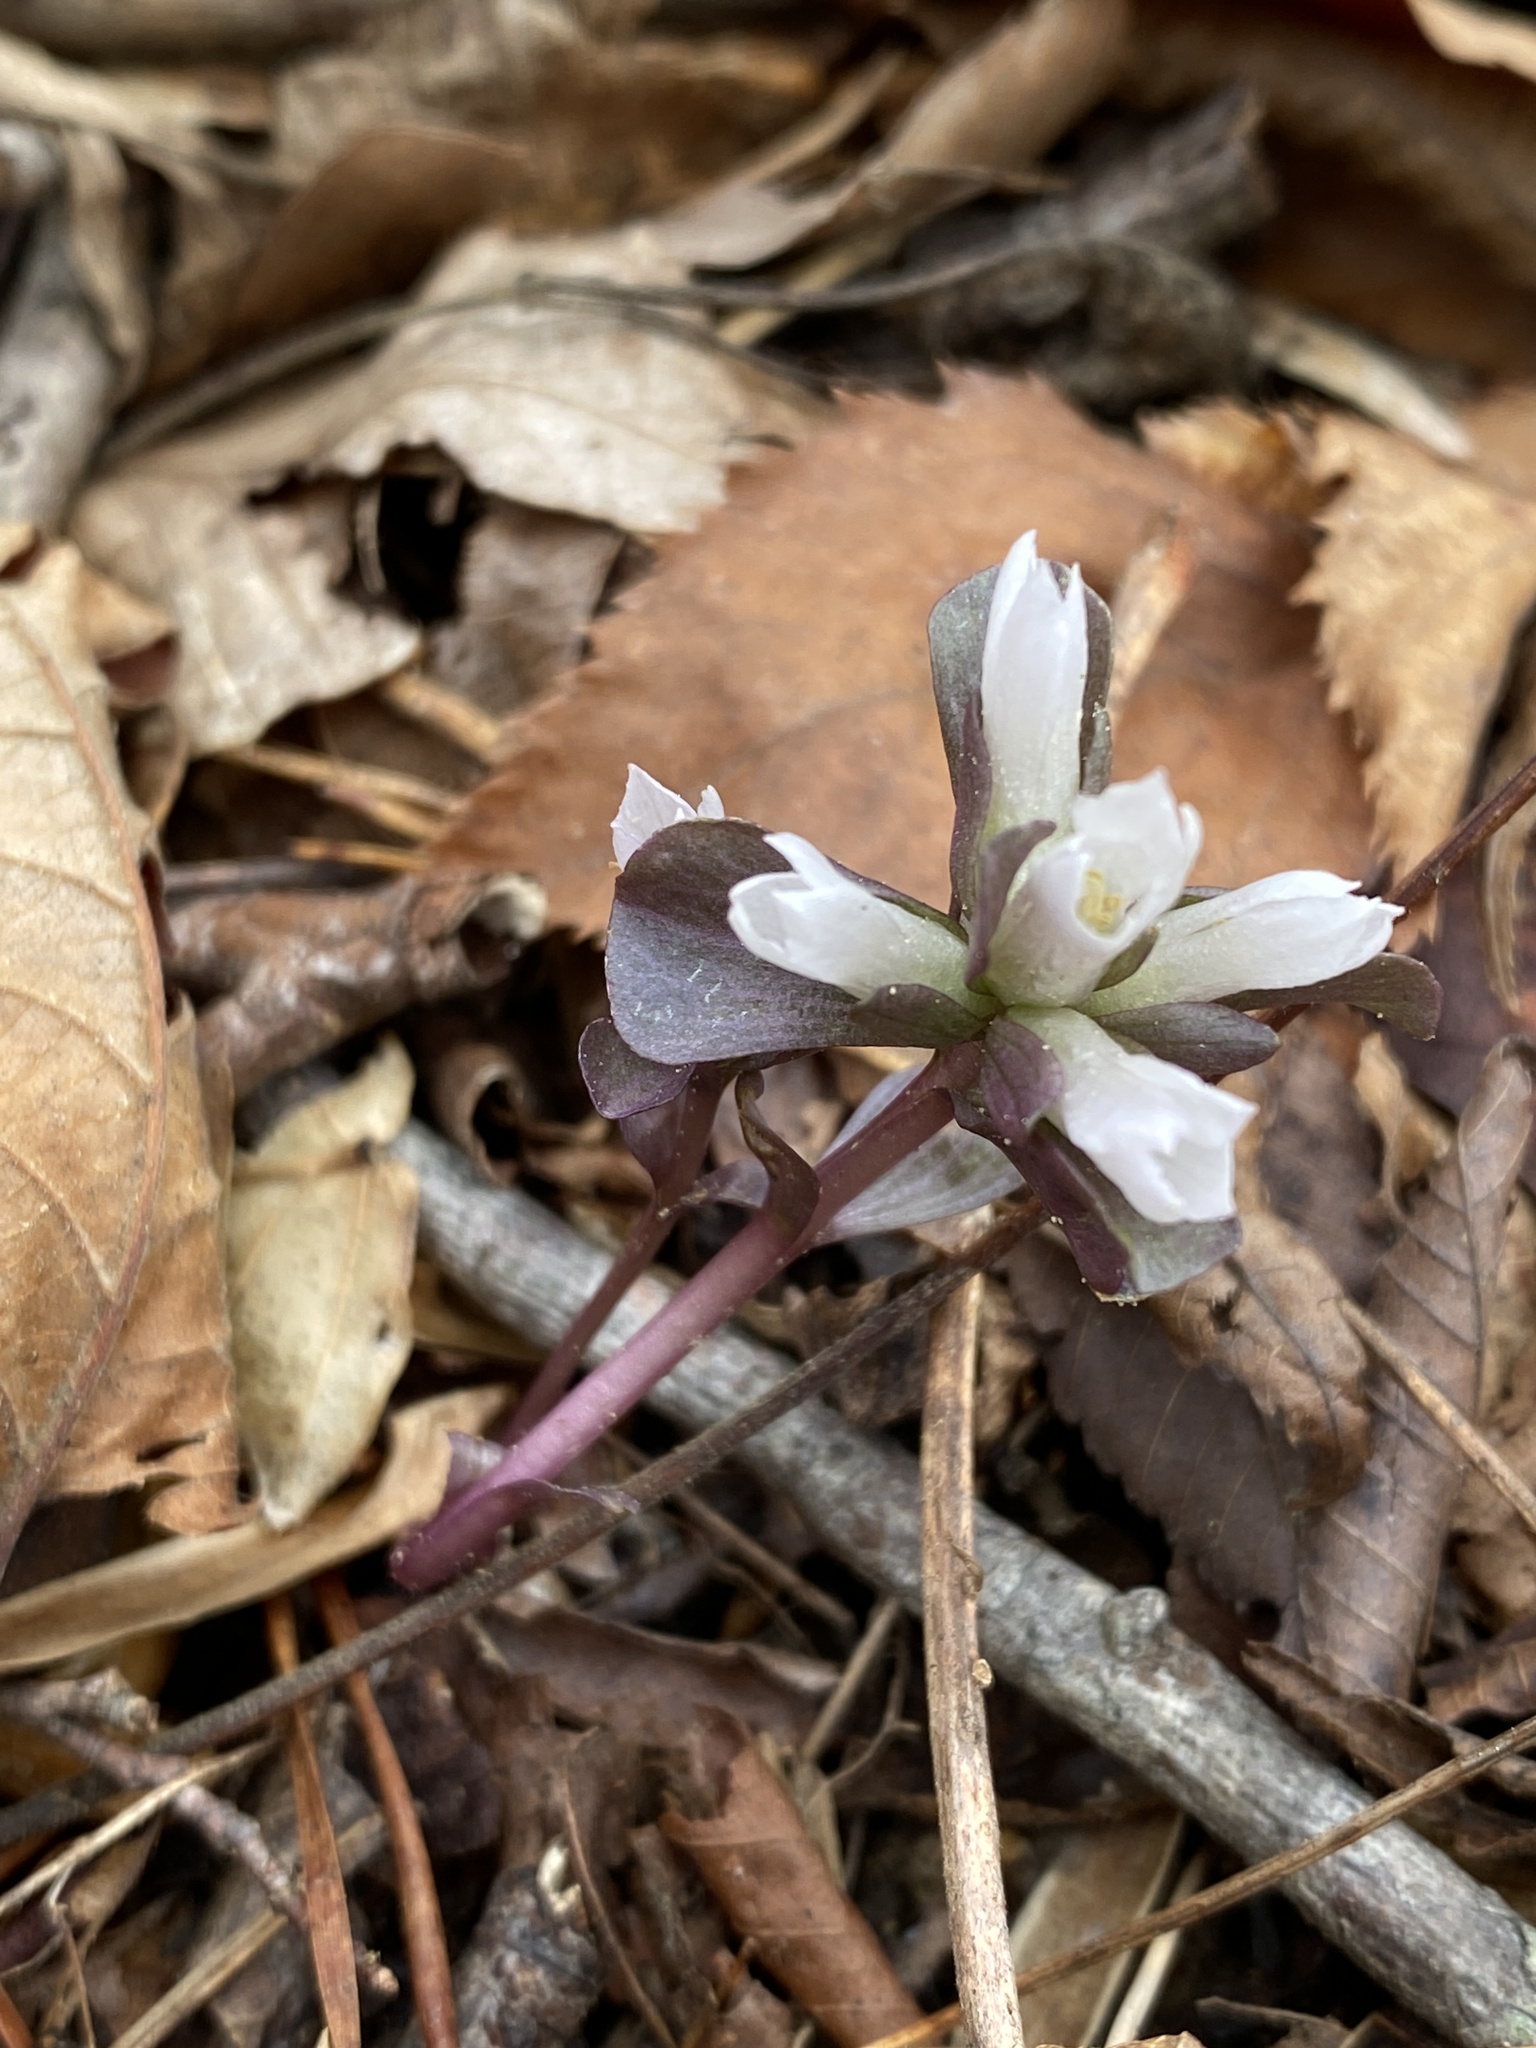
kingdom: Plantae
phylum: Tracheophyta
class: Magnoliopsida
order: Gentianales
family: Gentianaceae
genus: Obolaria
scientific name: Obolaria virginica
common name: Pennywort
